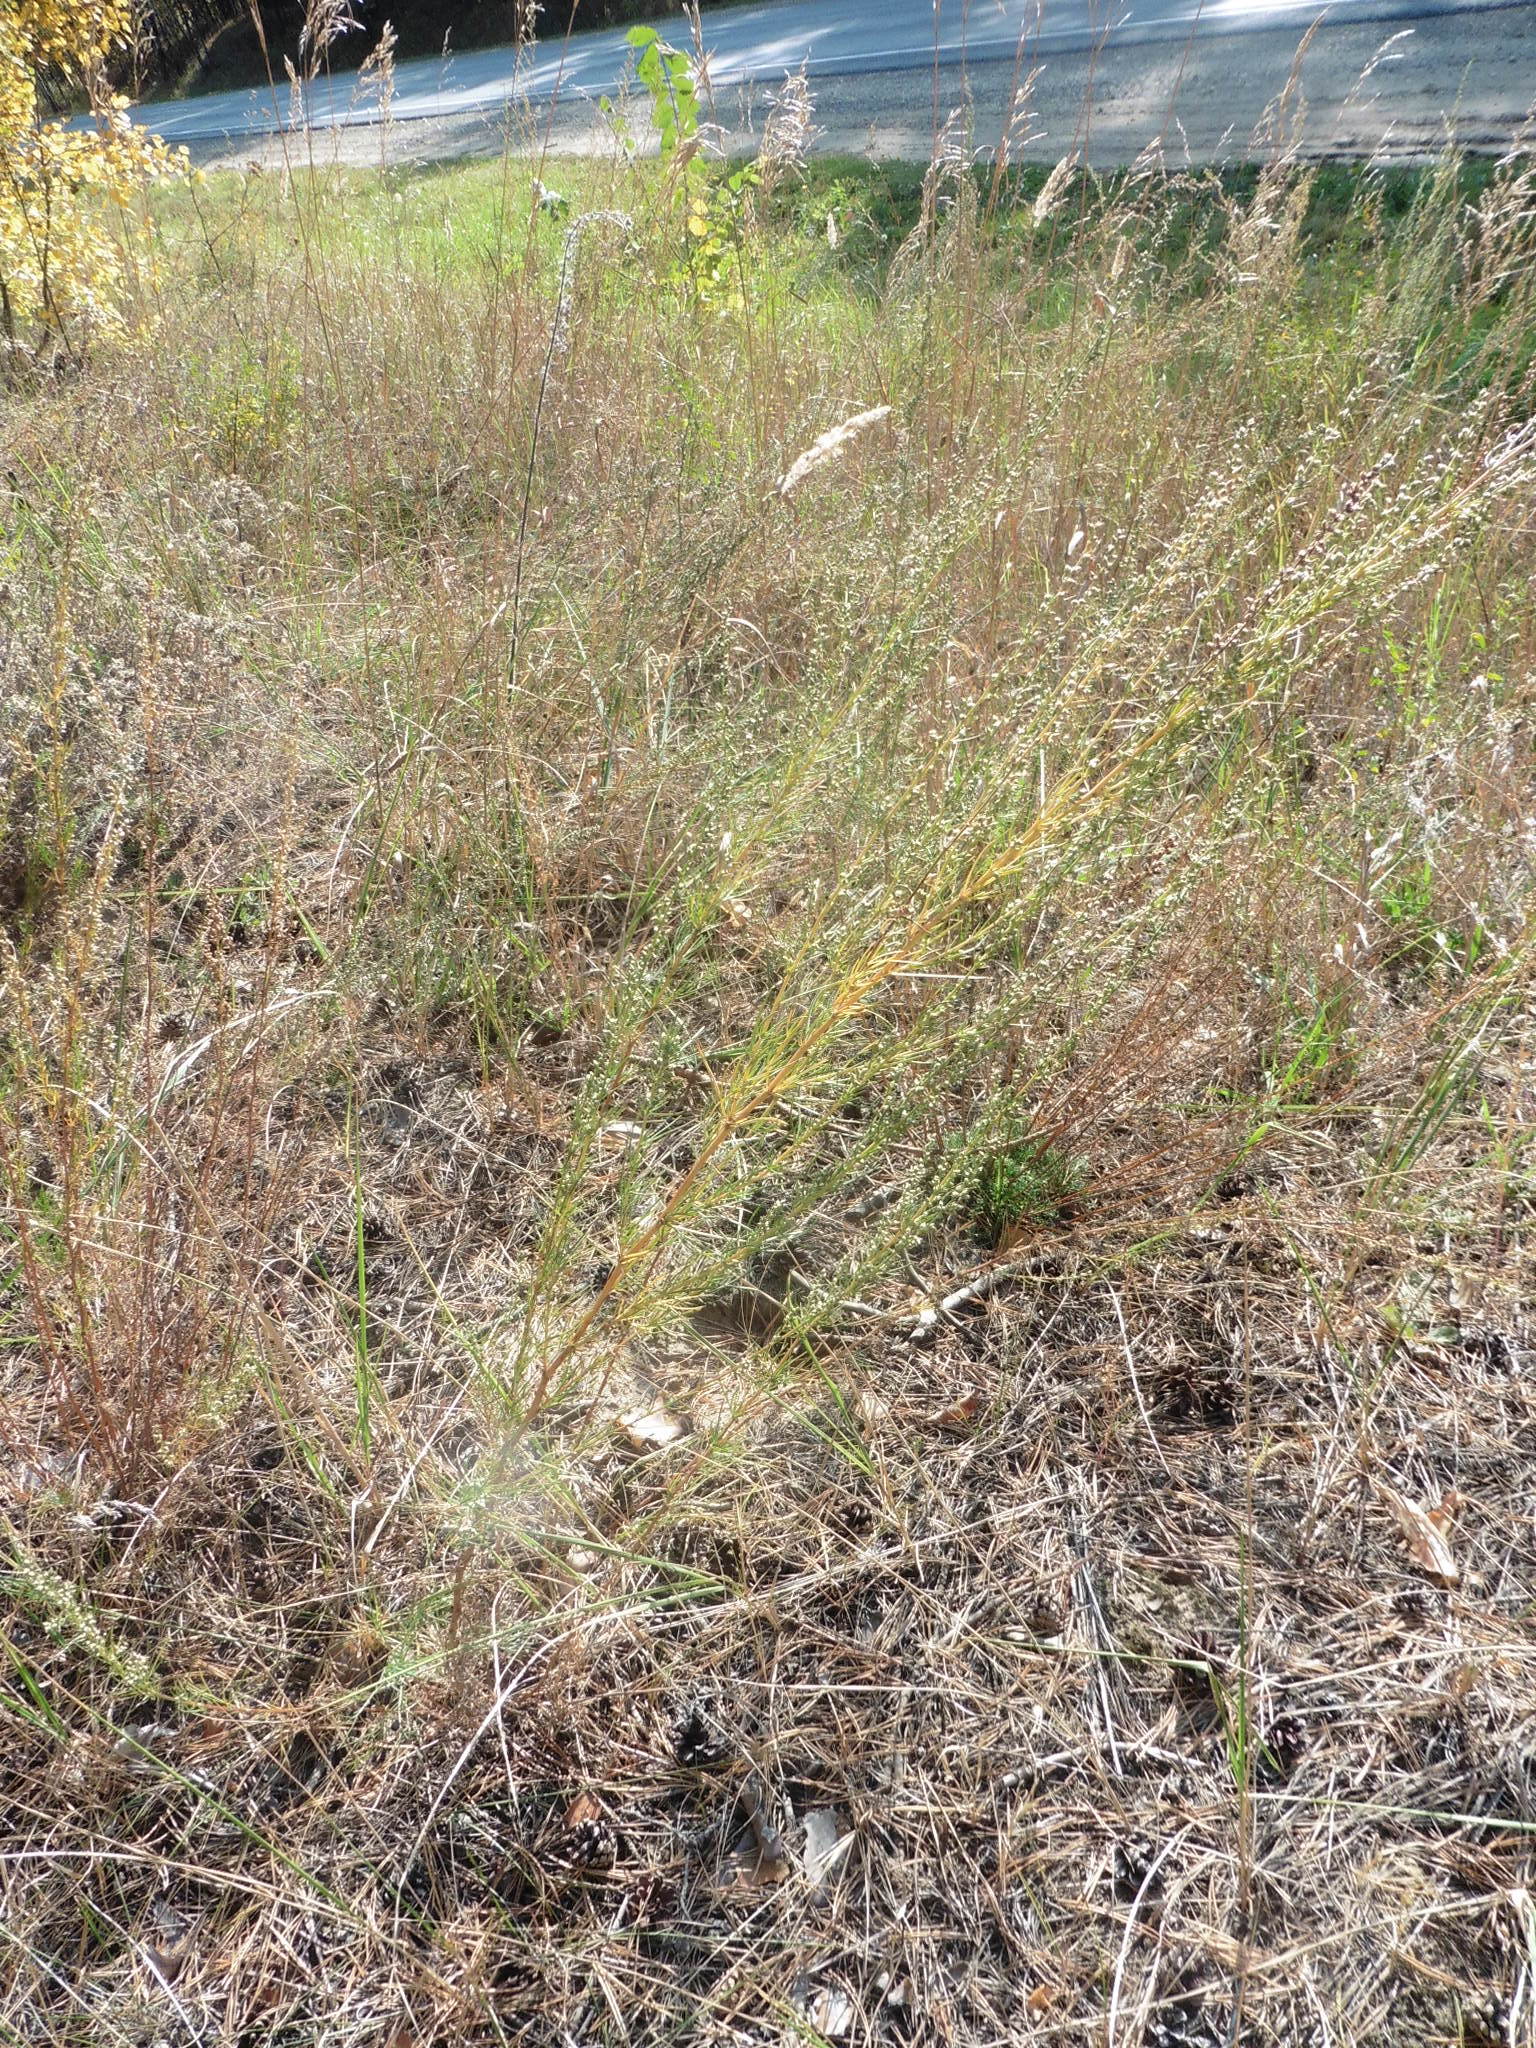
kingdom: Plantae
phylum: Tracheophyta
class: Magnoliopsida
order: Asterales
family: Asteraceae
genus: Artemisia
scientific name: Artemisia campestris
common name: Field wormwood
